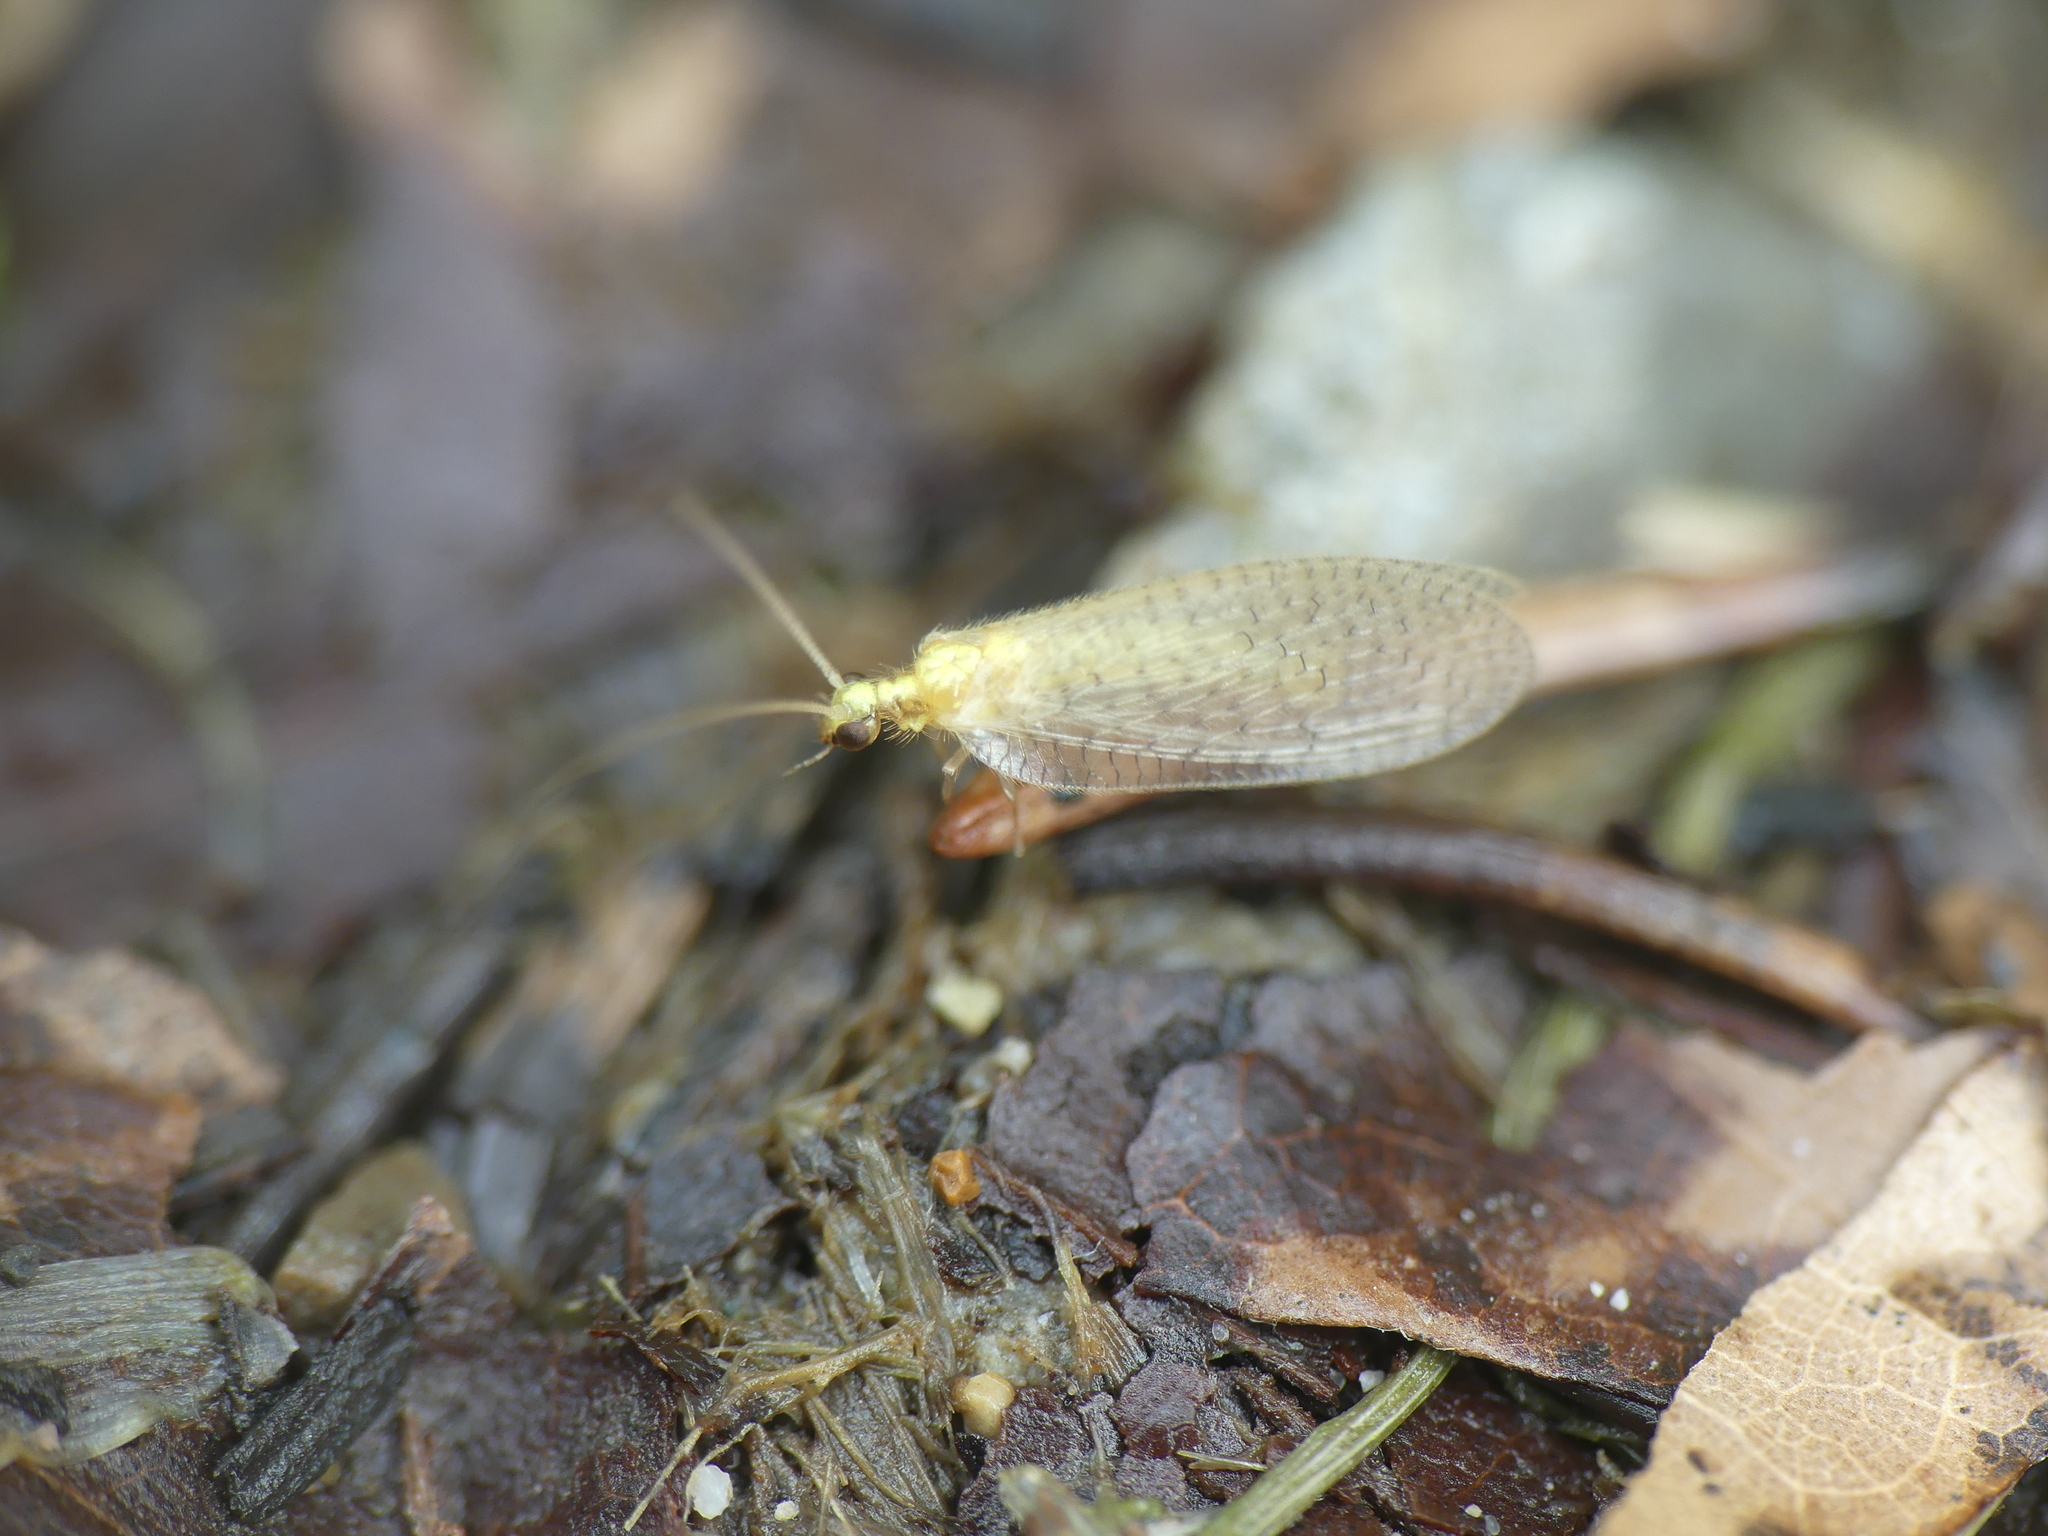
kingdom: Animalia
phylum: Arthropoda
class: Insecta
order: Neuroptera
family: Hemerobiidae
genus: Hemerobius
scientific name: Hemerobius micans
